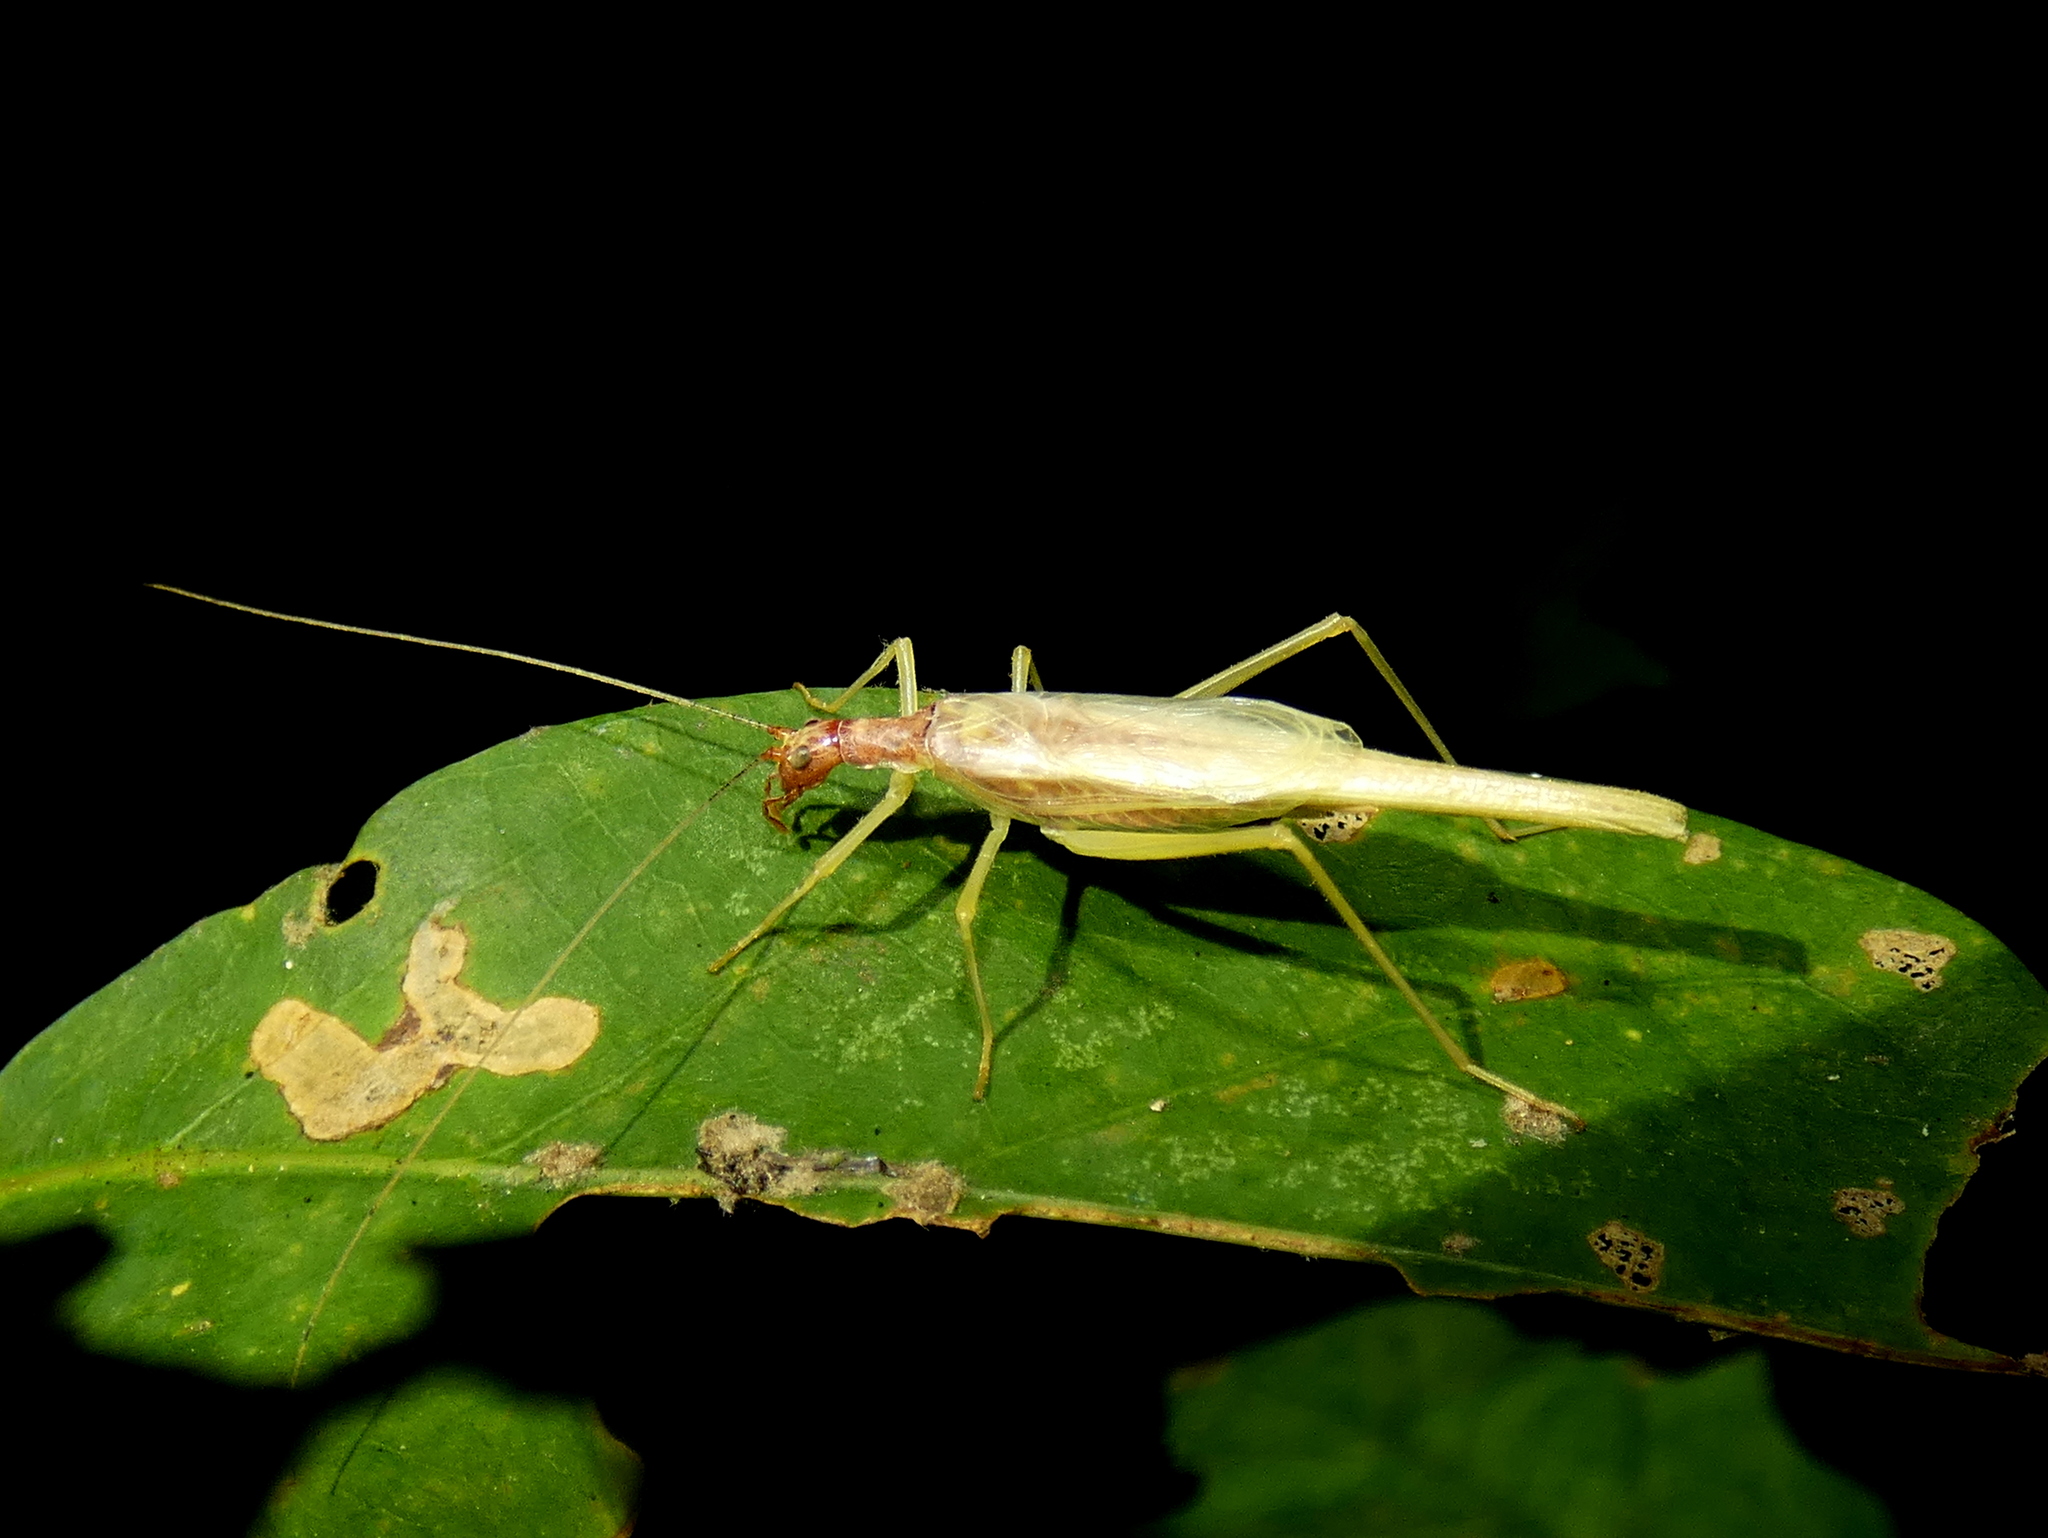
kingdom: Animalia
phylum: Arthropoda
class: Insecta
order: Orthoptera
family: Gryllidae
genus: Neoxabea
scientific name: Neoxabea bipunctata
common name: Two-spotted tree cricket
